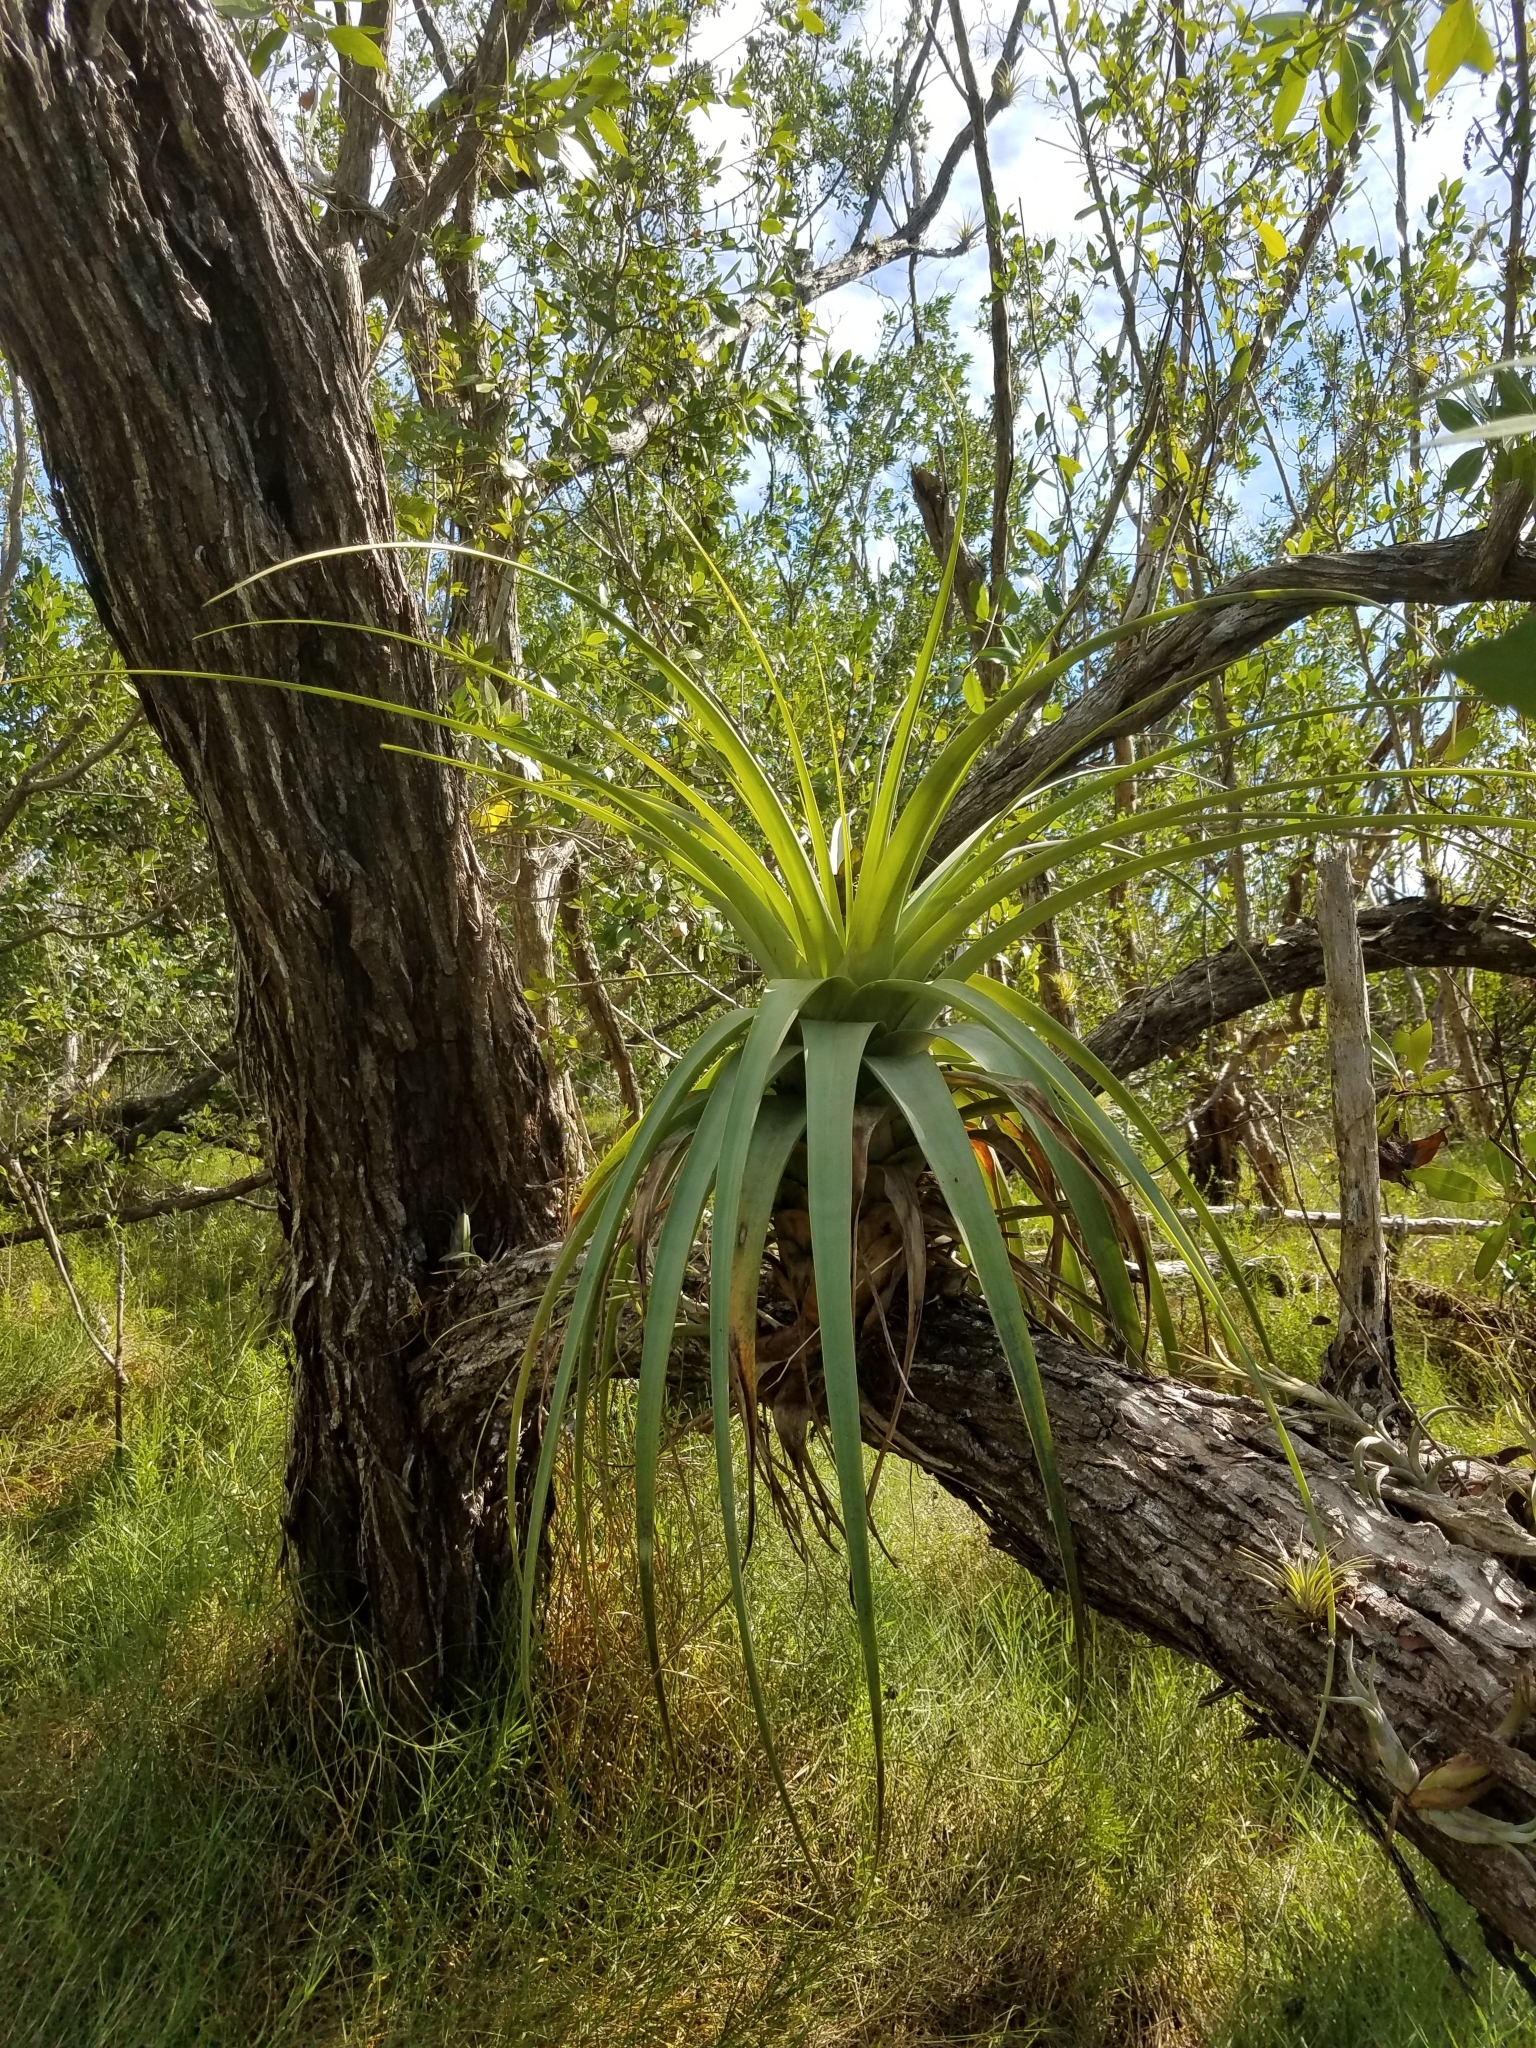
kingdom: Plantae
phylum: Tracheophyta
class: Liliopsida
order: Poales
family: Bromeliaceae
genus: Tillandsia
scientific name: Tillandsia utriculata
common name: Wild pine
